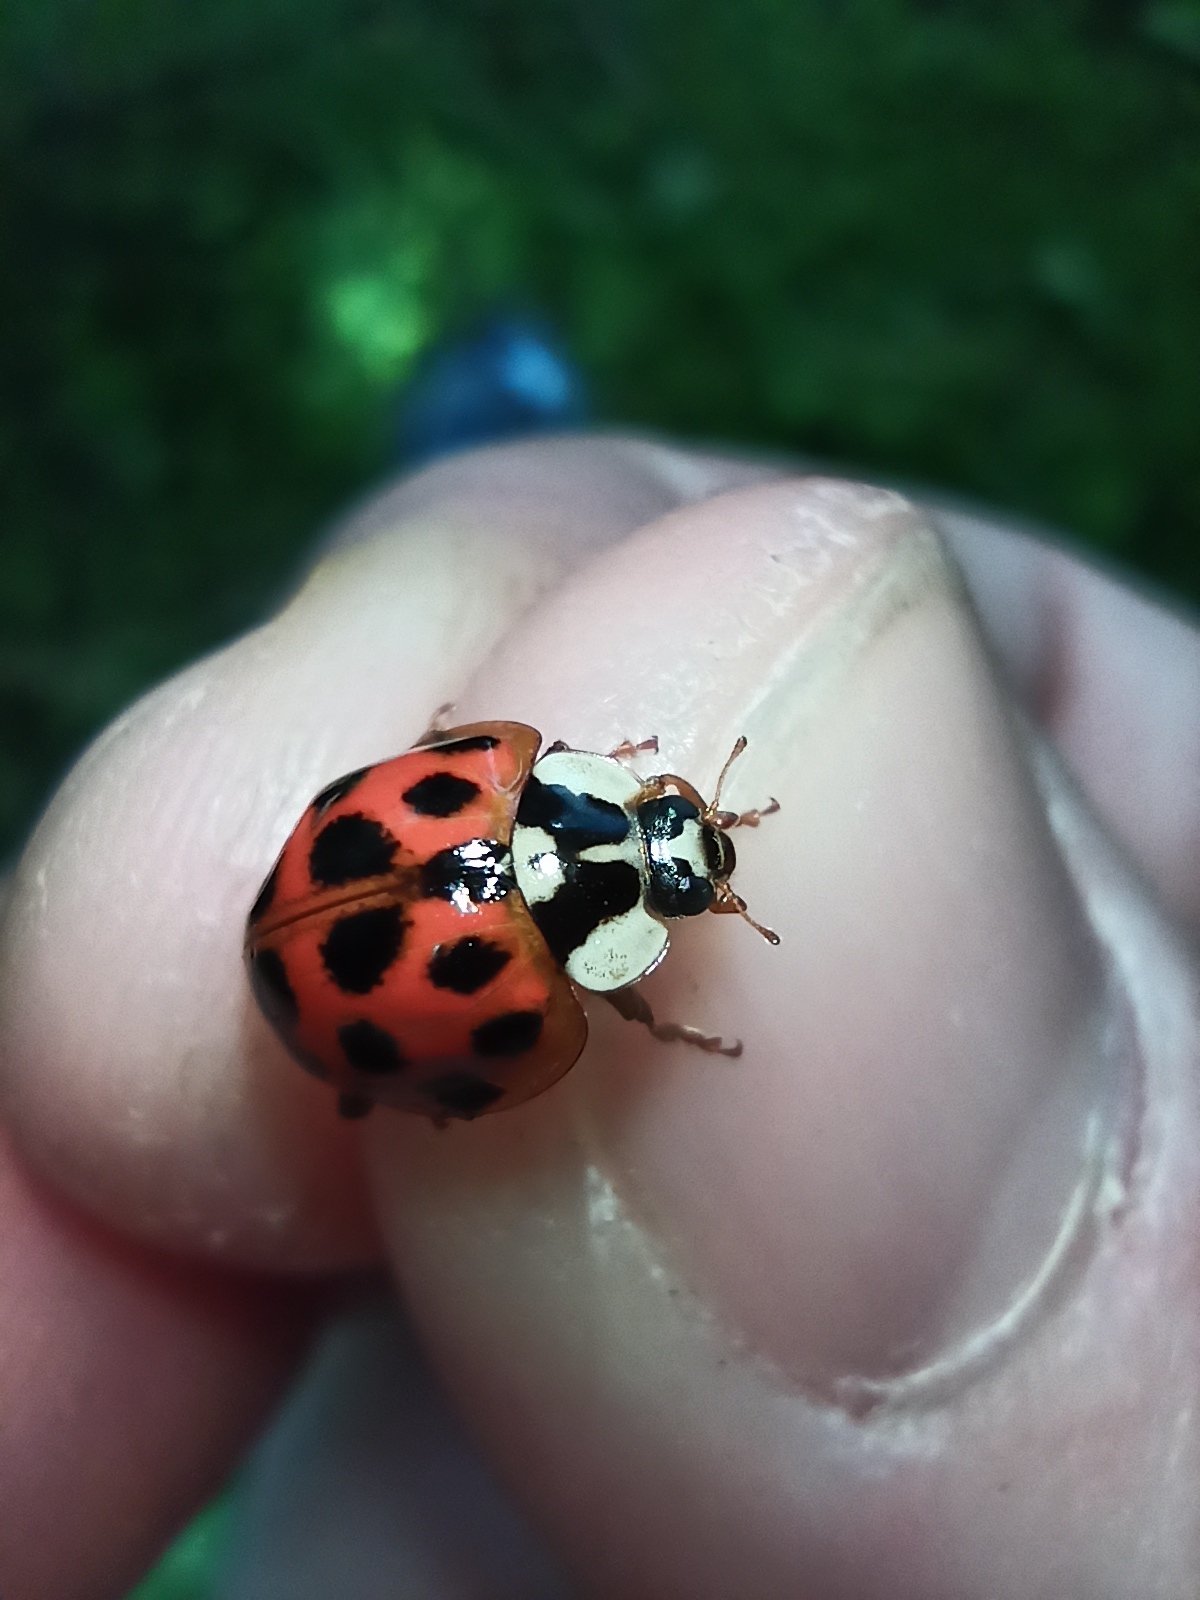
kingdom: Animalia
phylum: Arthropoda
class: Insecta
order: Coleoptera
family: Coccinellidae
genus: Harmonia
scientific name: Harmonia axyridis
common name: Harlequin ladybird
